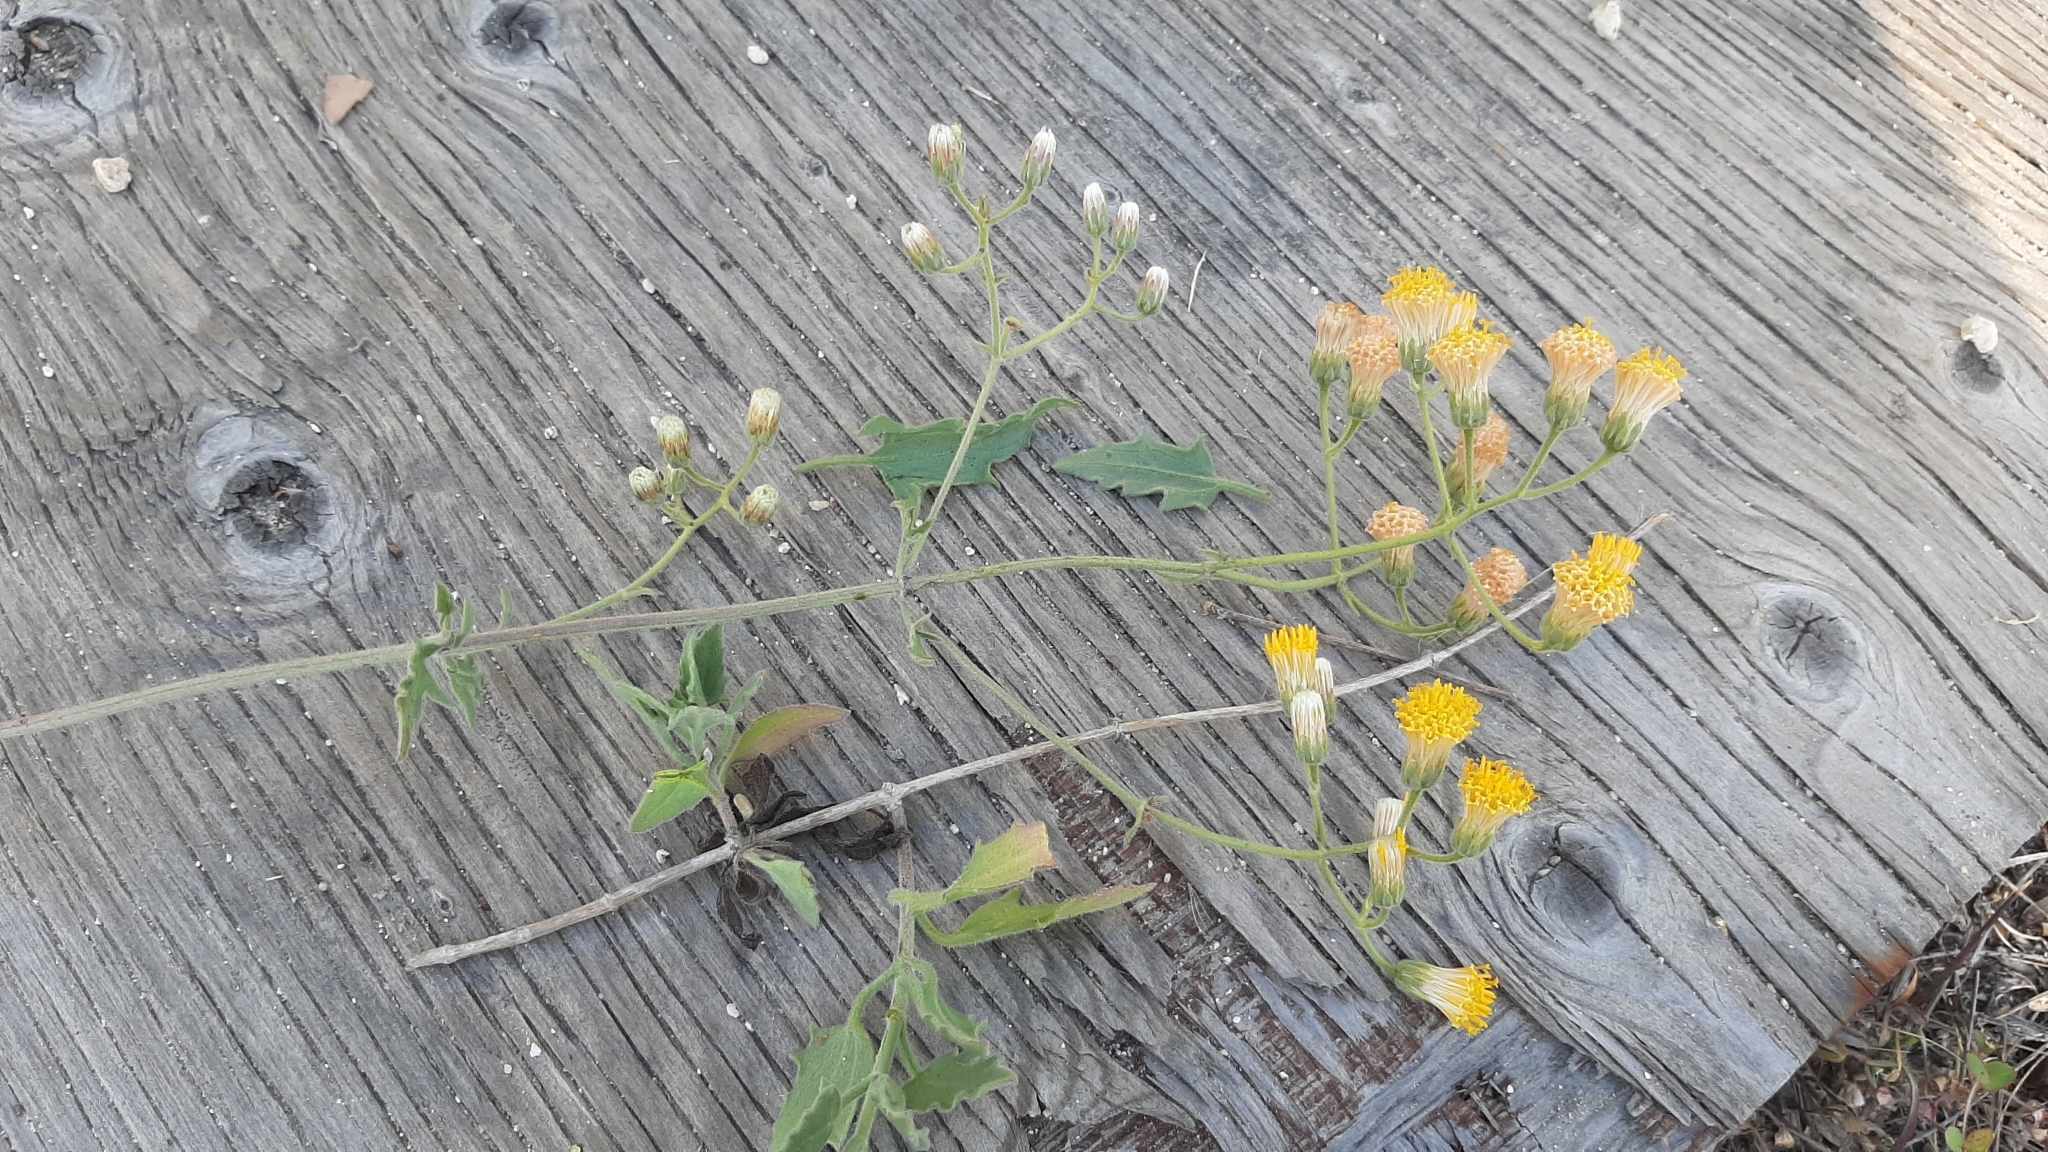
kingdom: Plantae
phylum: Tracheophyta
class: Magnoliopsida
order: Asterales
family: Asteraceae
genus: Bebbia
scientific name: Bebbia atriplicifolia
